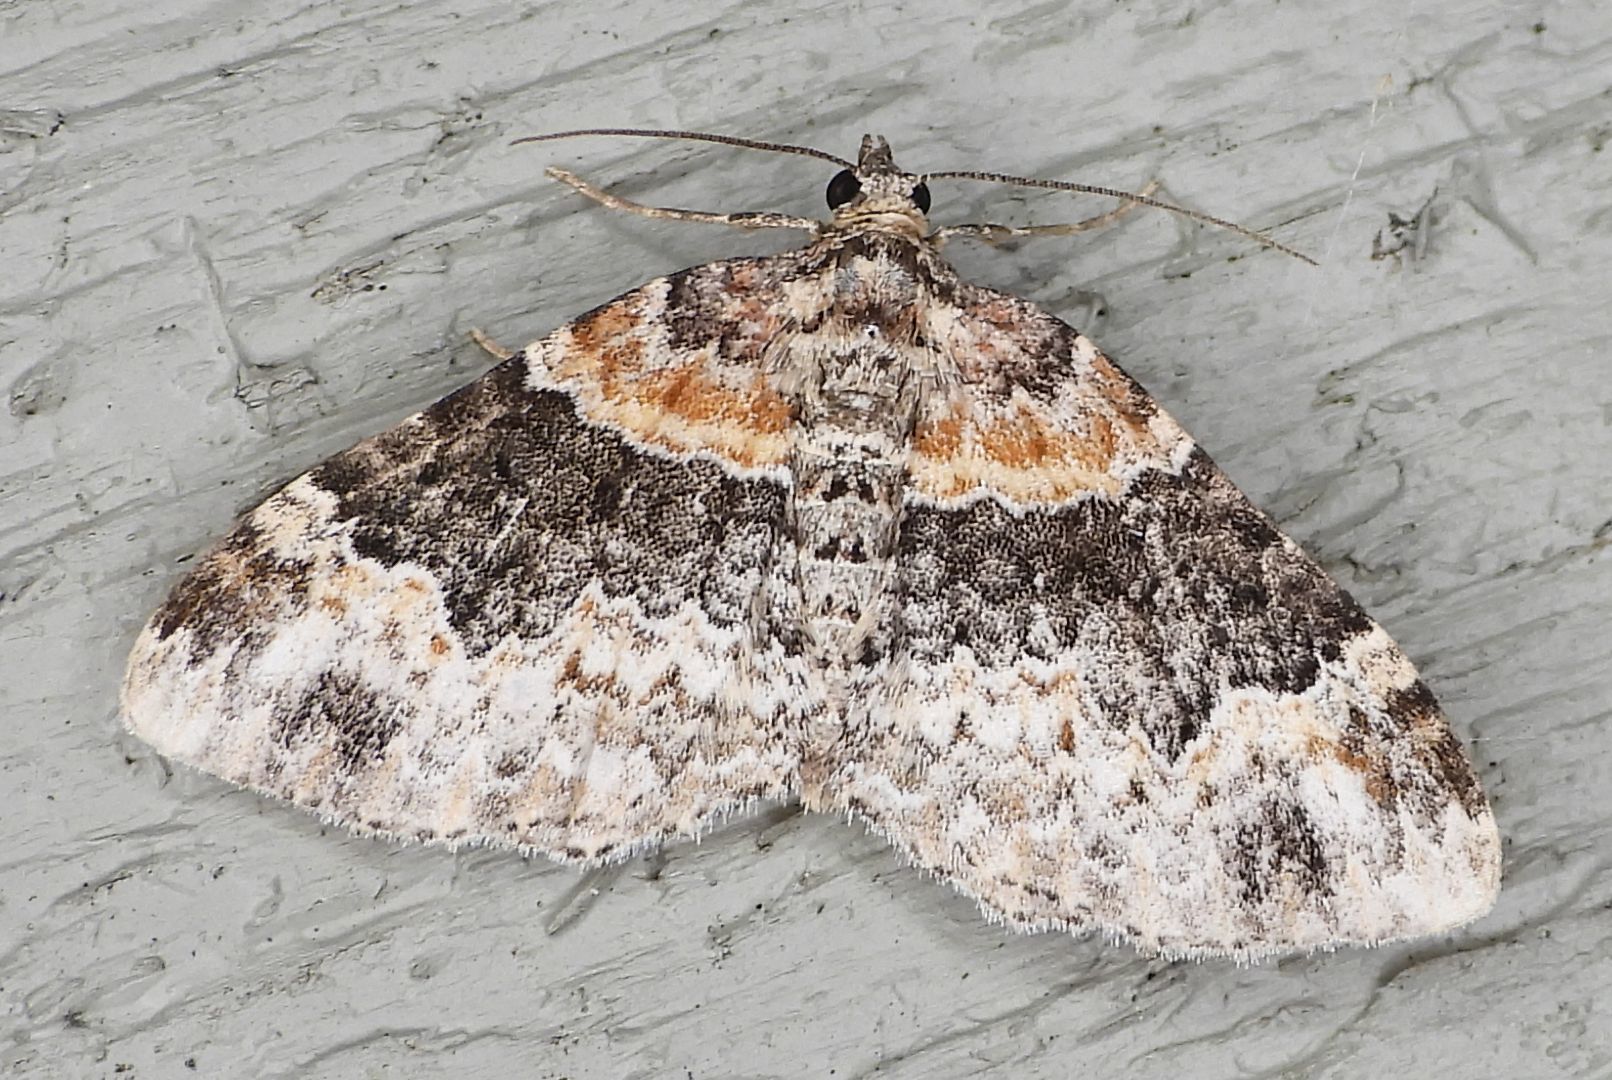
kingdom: Animalia
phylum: Arthropoda
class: Insecta
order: Lepidoptera
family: Geometridae
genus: Xanthorhoe
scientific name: Xanthorhoe ferrugata
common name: Dark-barred twin-spot carpet
